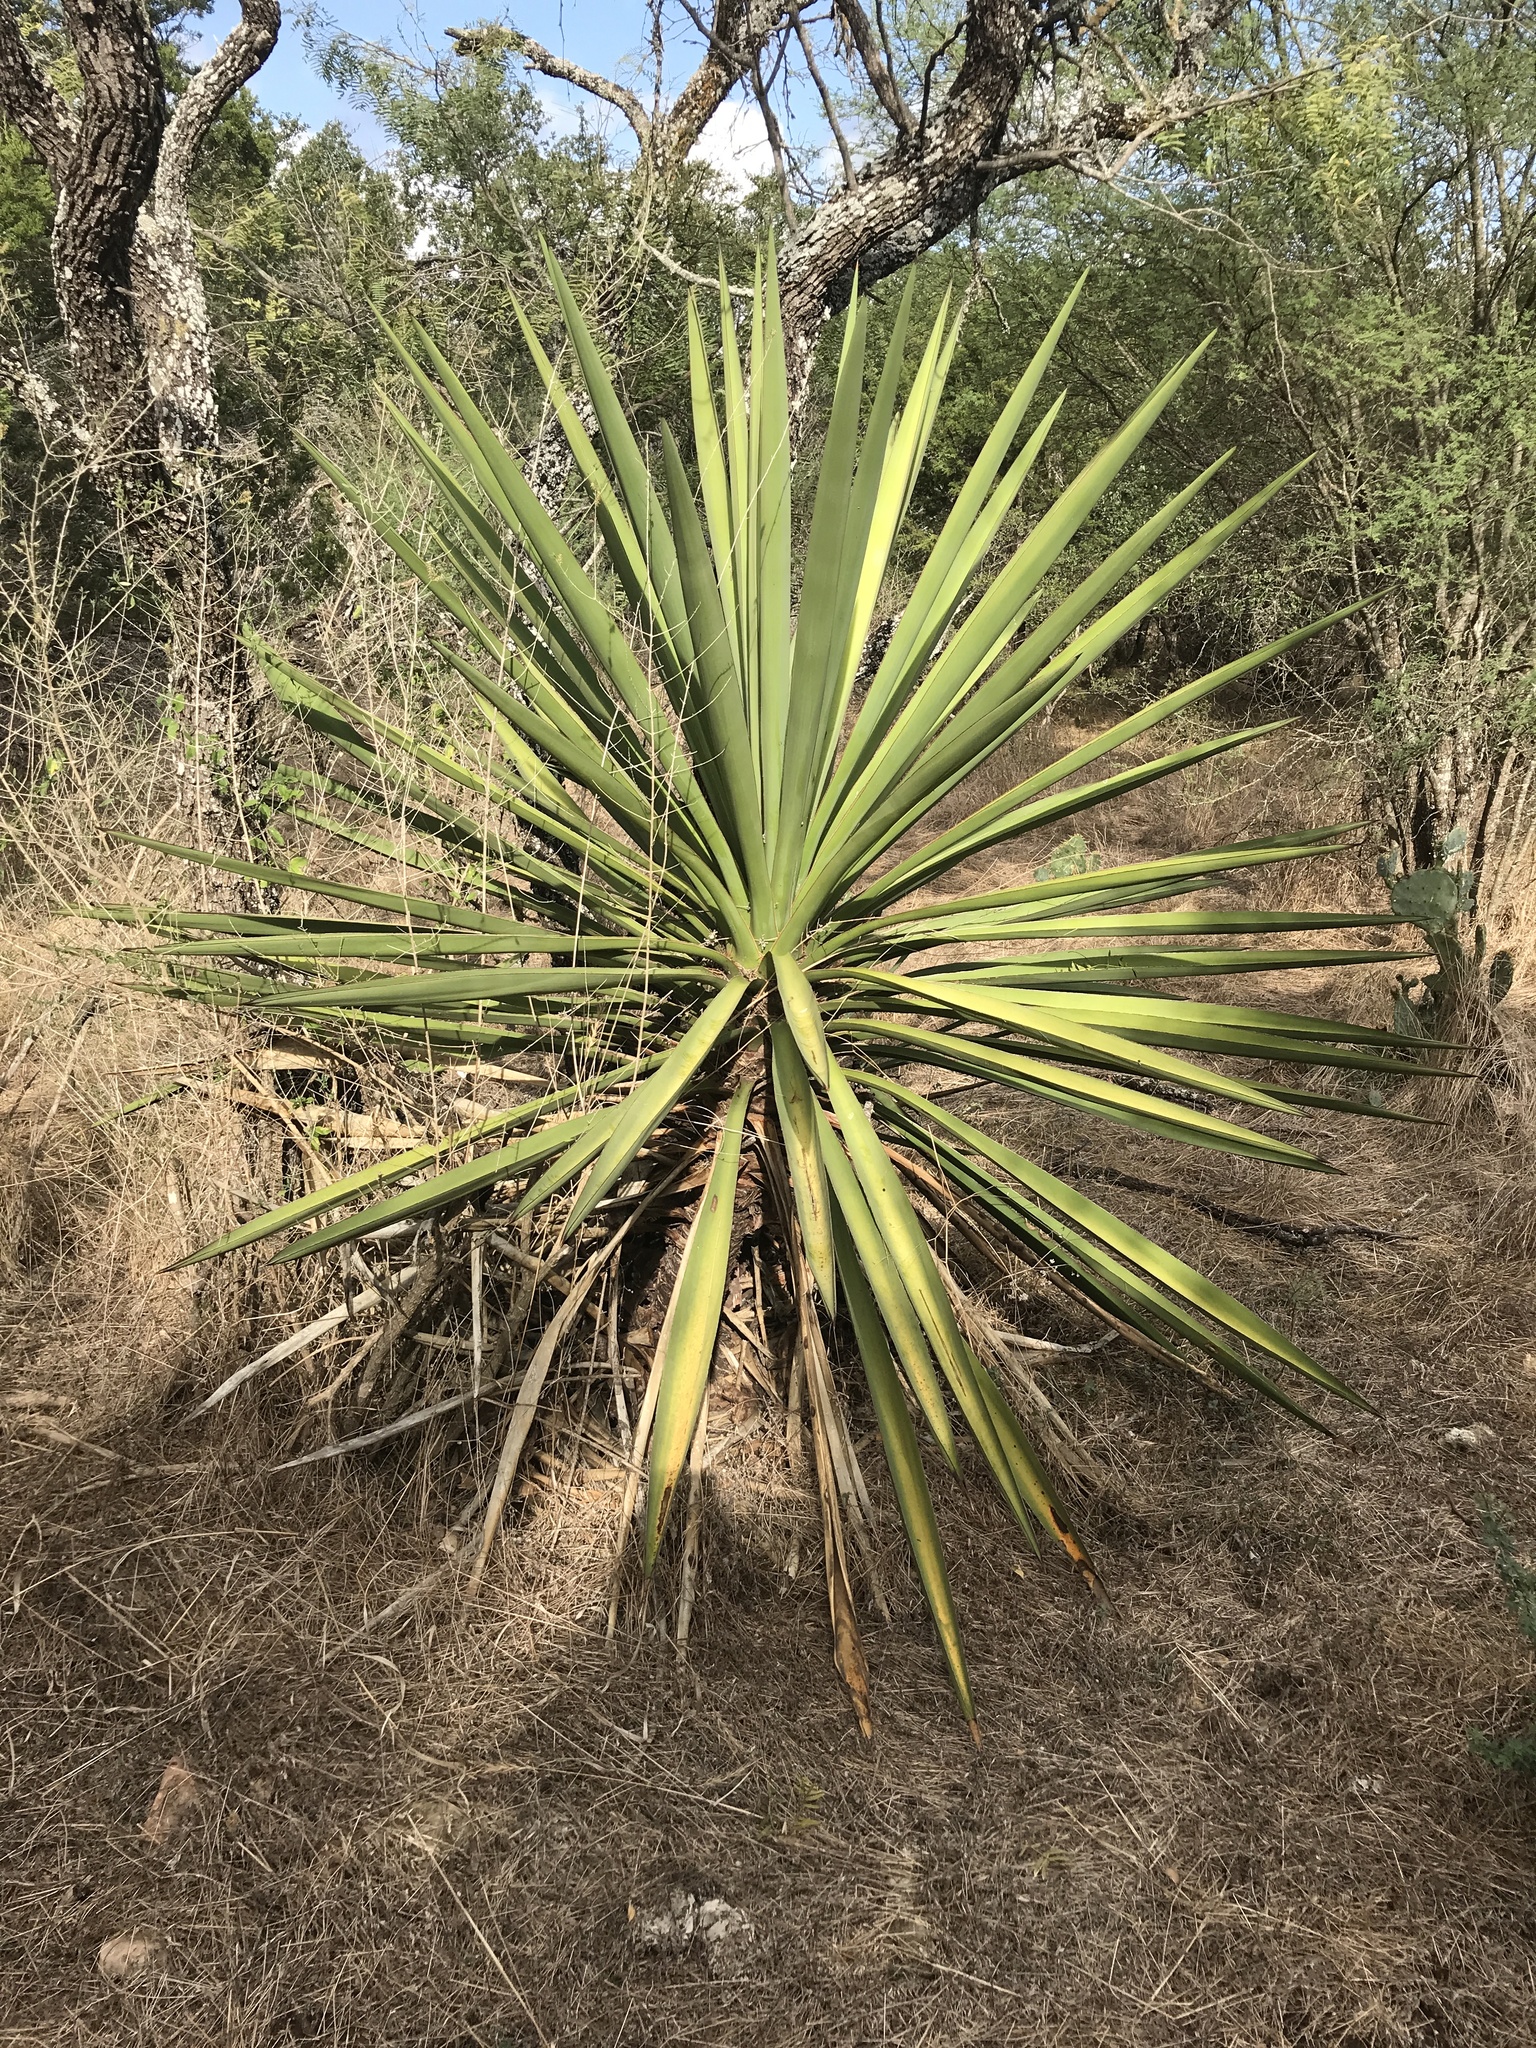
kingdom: Plantae
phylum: Tracheophyta
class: Liliopsida
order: Asparagales
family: Asparagaceae
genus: Yucca
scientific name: Yucca treculiana
